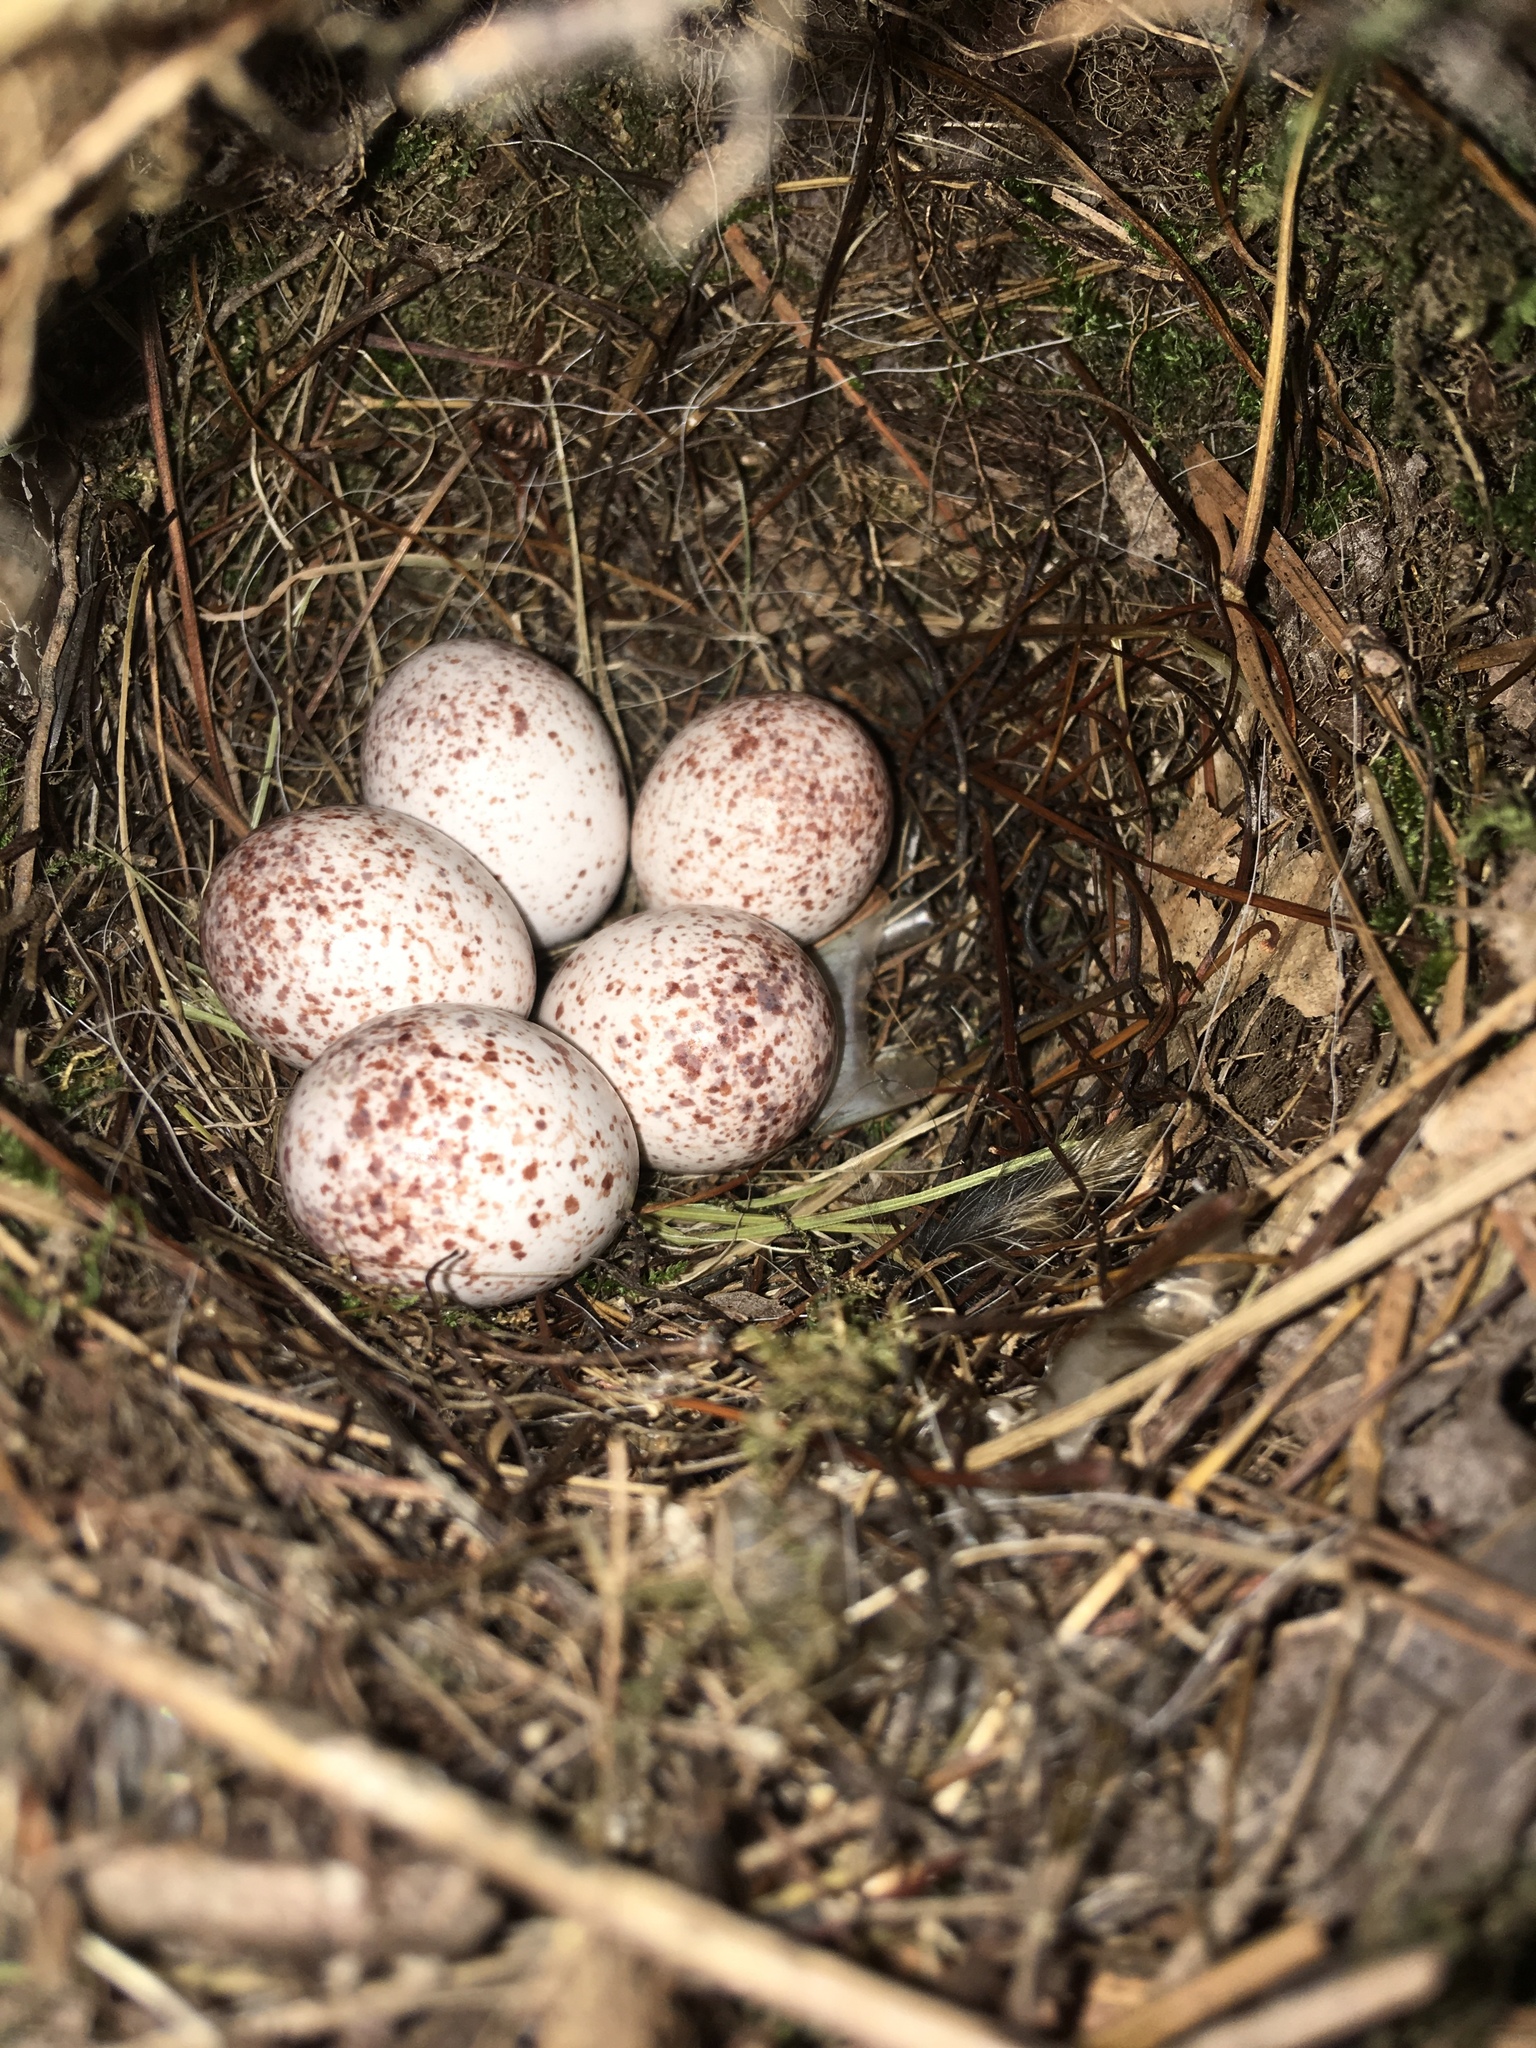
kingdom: Animalia
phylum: Chordata
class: Aves
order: Passeriformes
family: Troglodytidae
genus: Thryothorus
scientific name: Thryothorus ludovicianus
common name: Carolina wren
